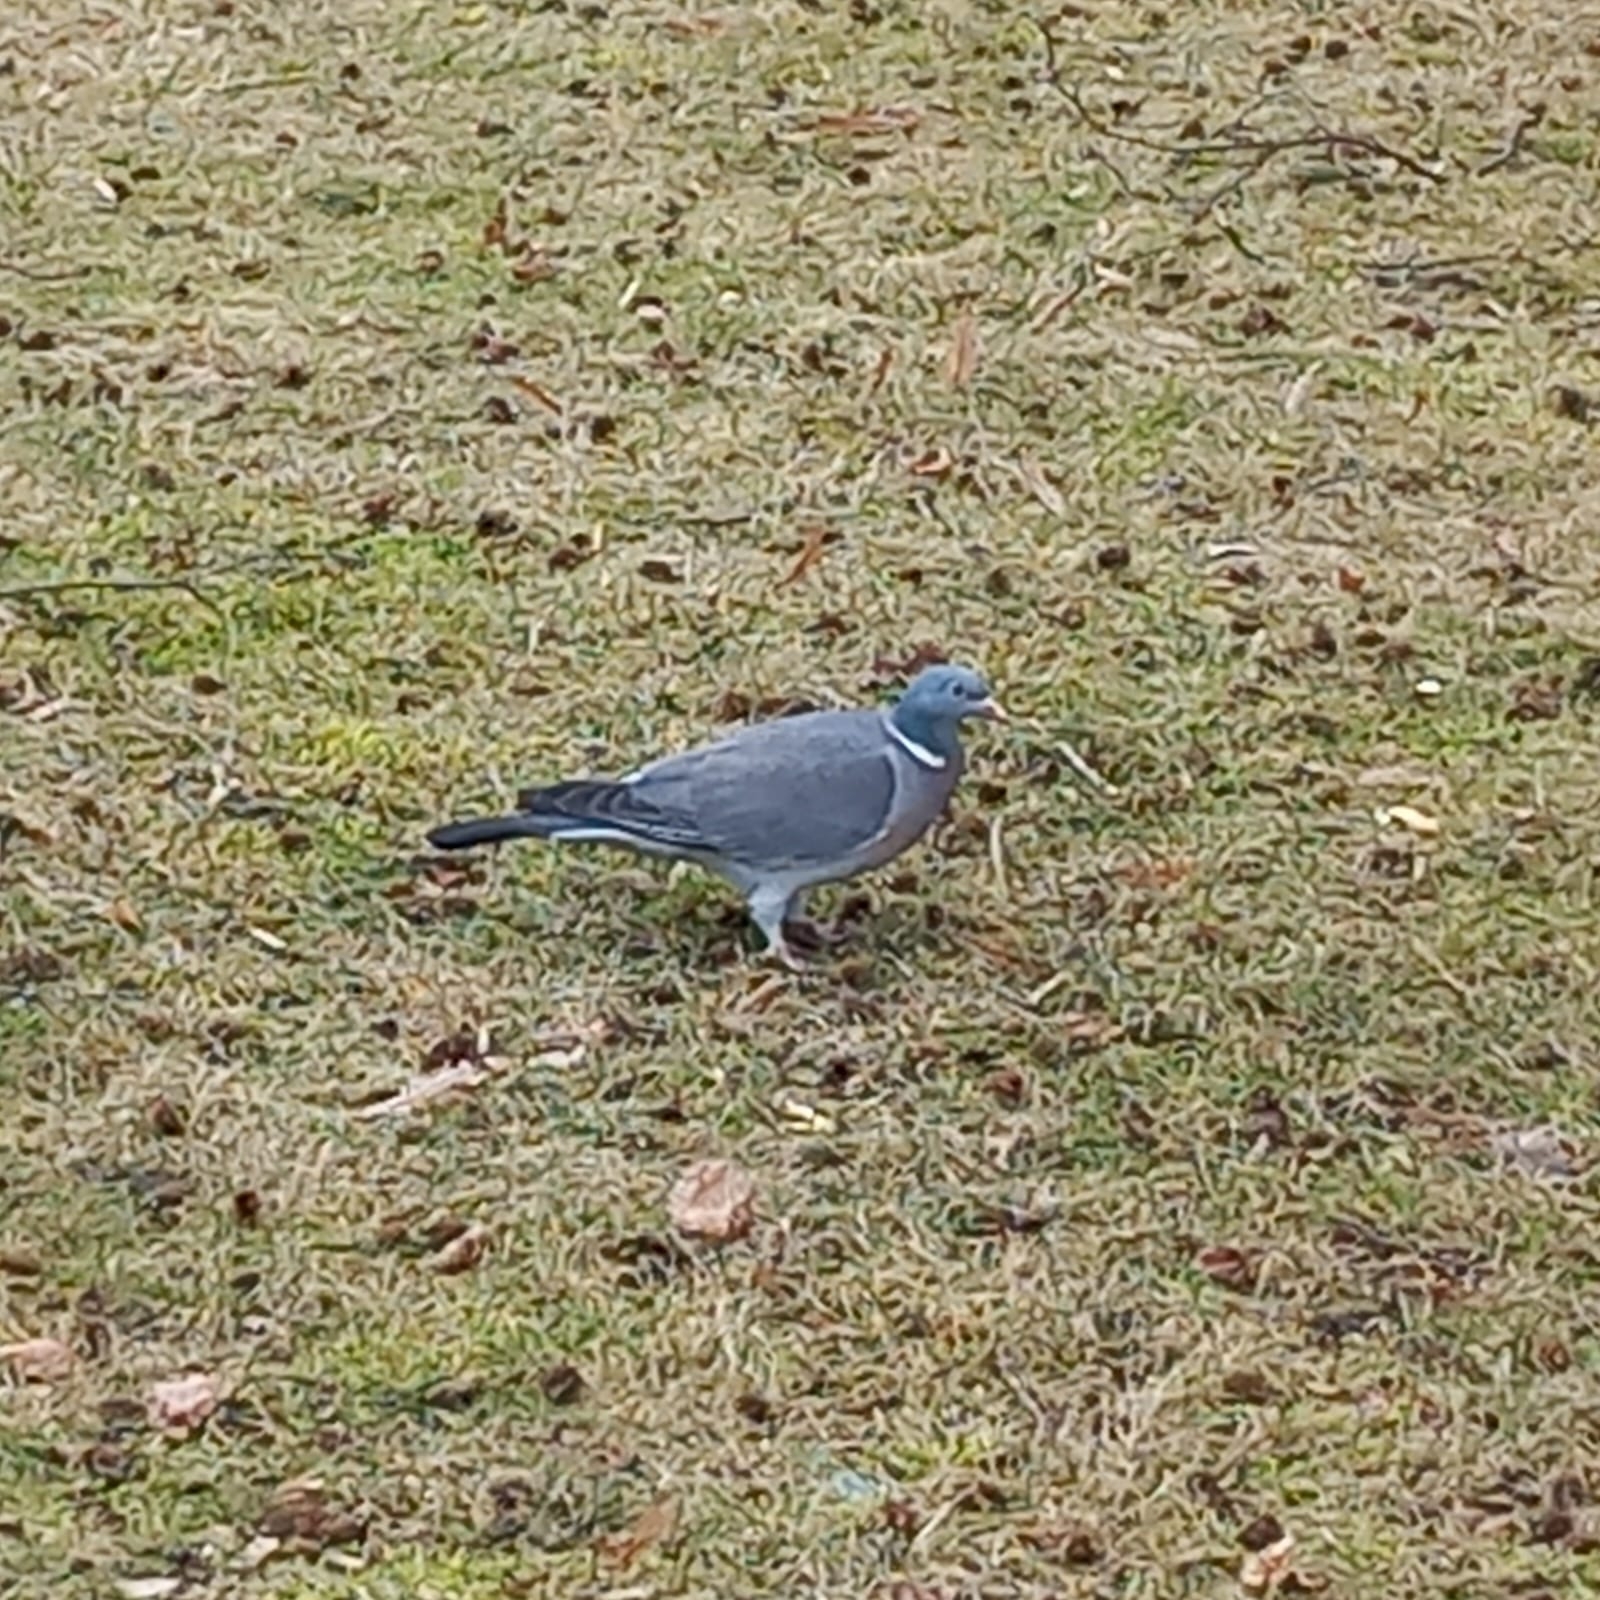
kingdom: Animalia
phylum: Chordata
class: Aves
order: Columbiformes
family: Columbidae
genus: Columba
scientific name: Columba palumbus
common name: Common wood pigeon
